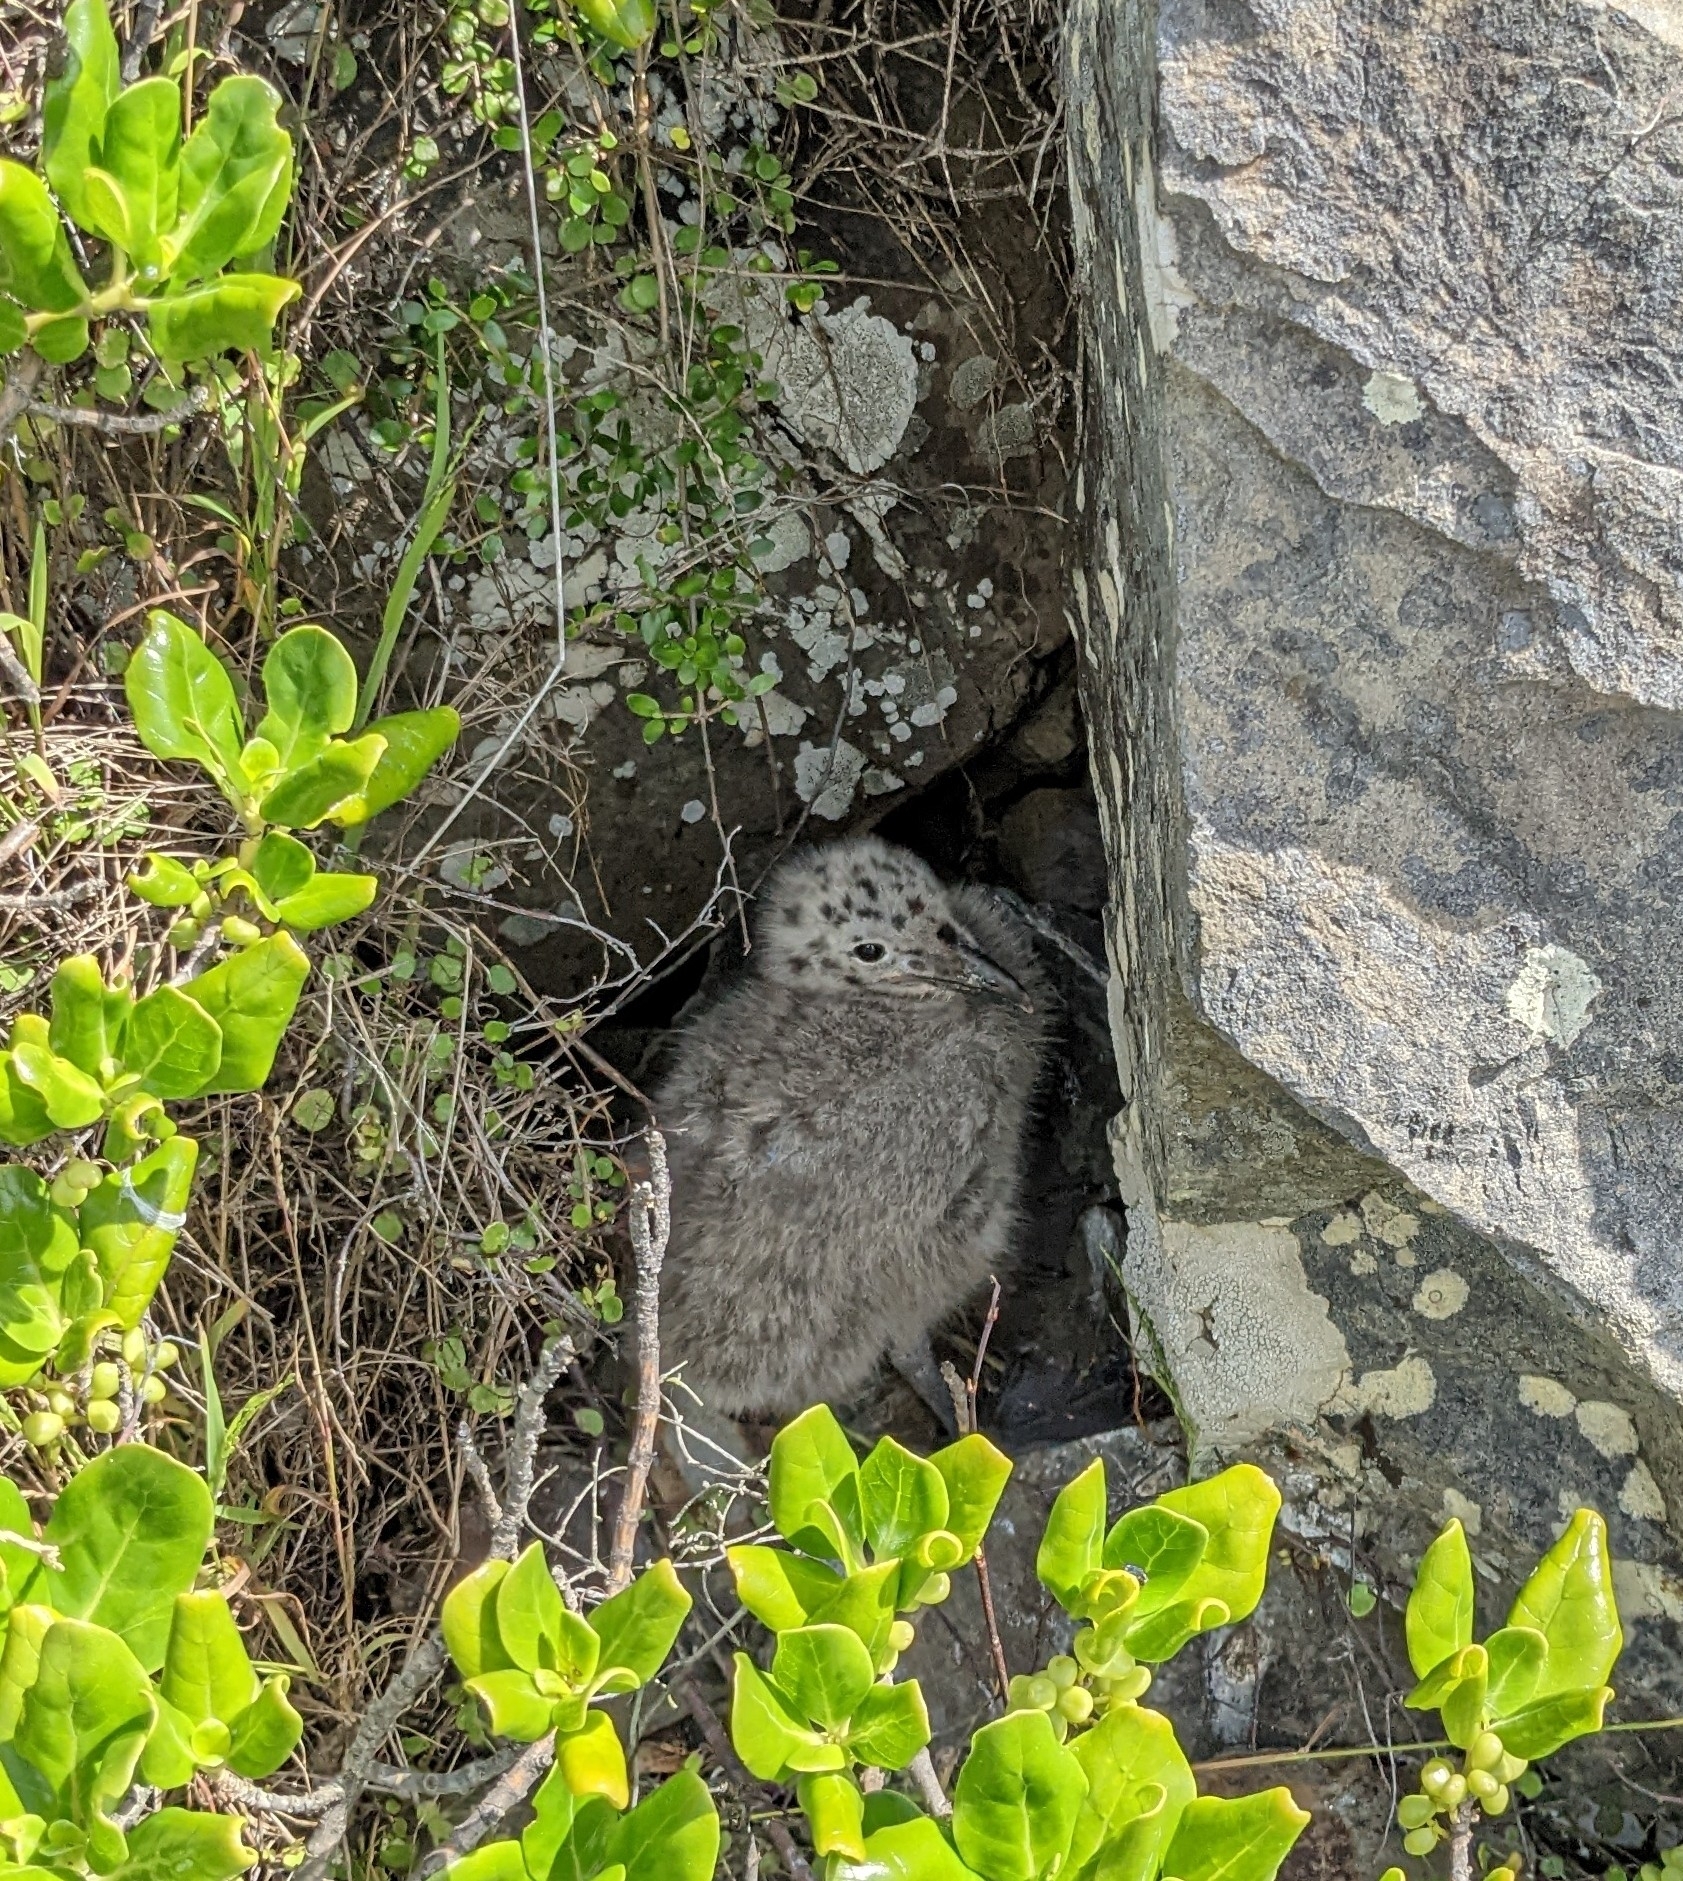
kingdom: Animalia
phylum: Chordata
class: Aves
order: Charadriiformes
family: Laridae
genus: Larus
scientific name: Larus dominicanus
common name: Kelp gull
